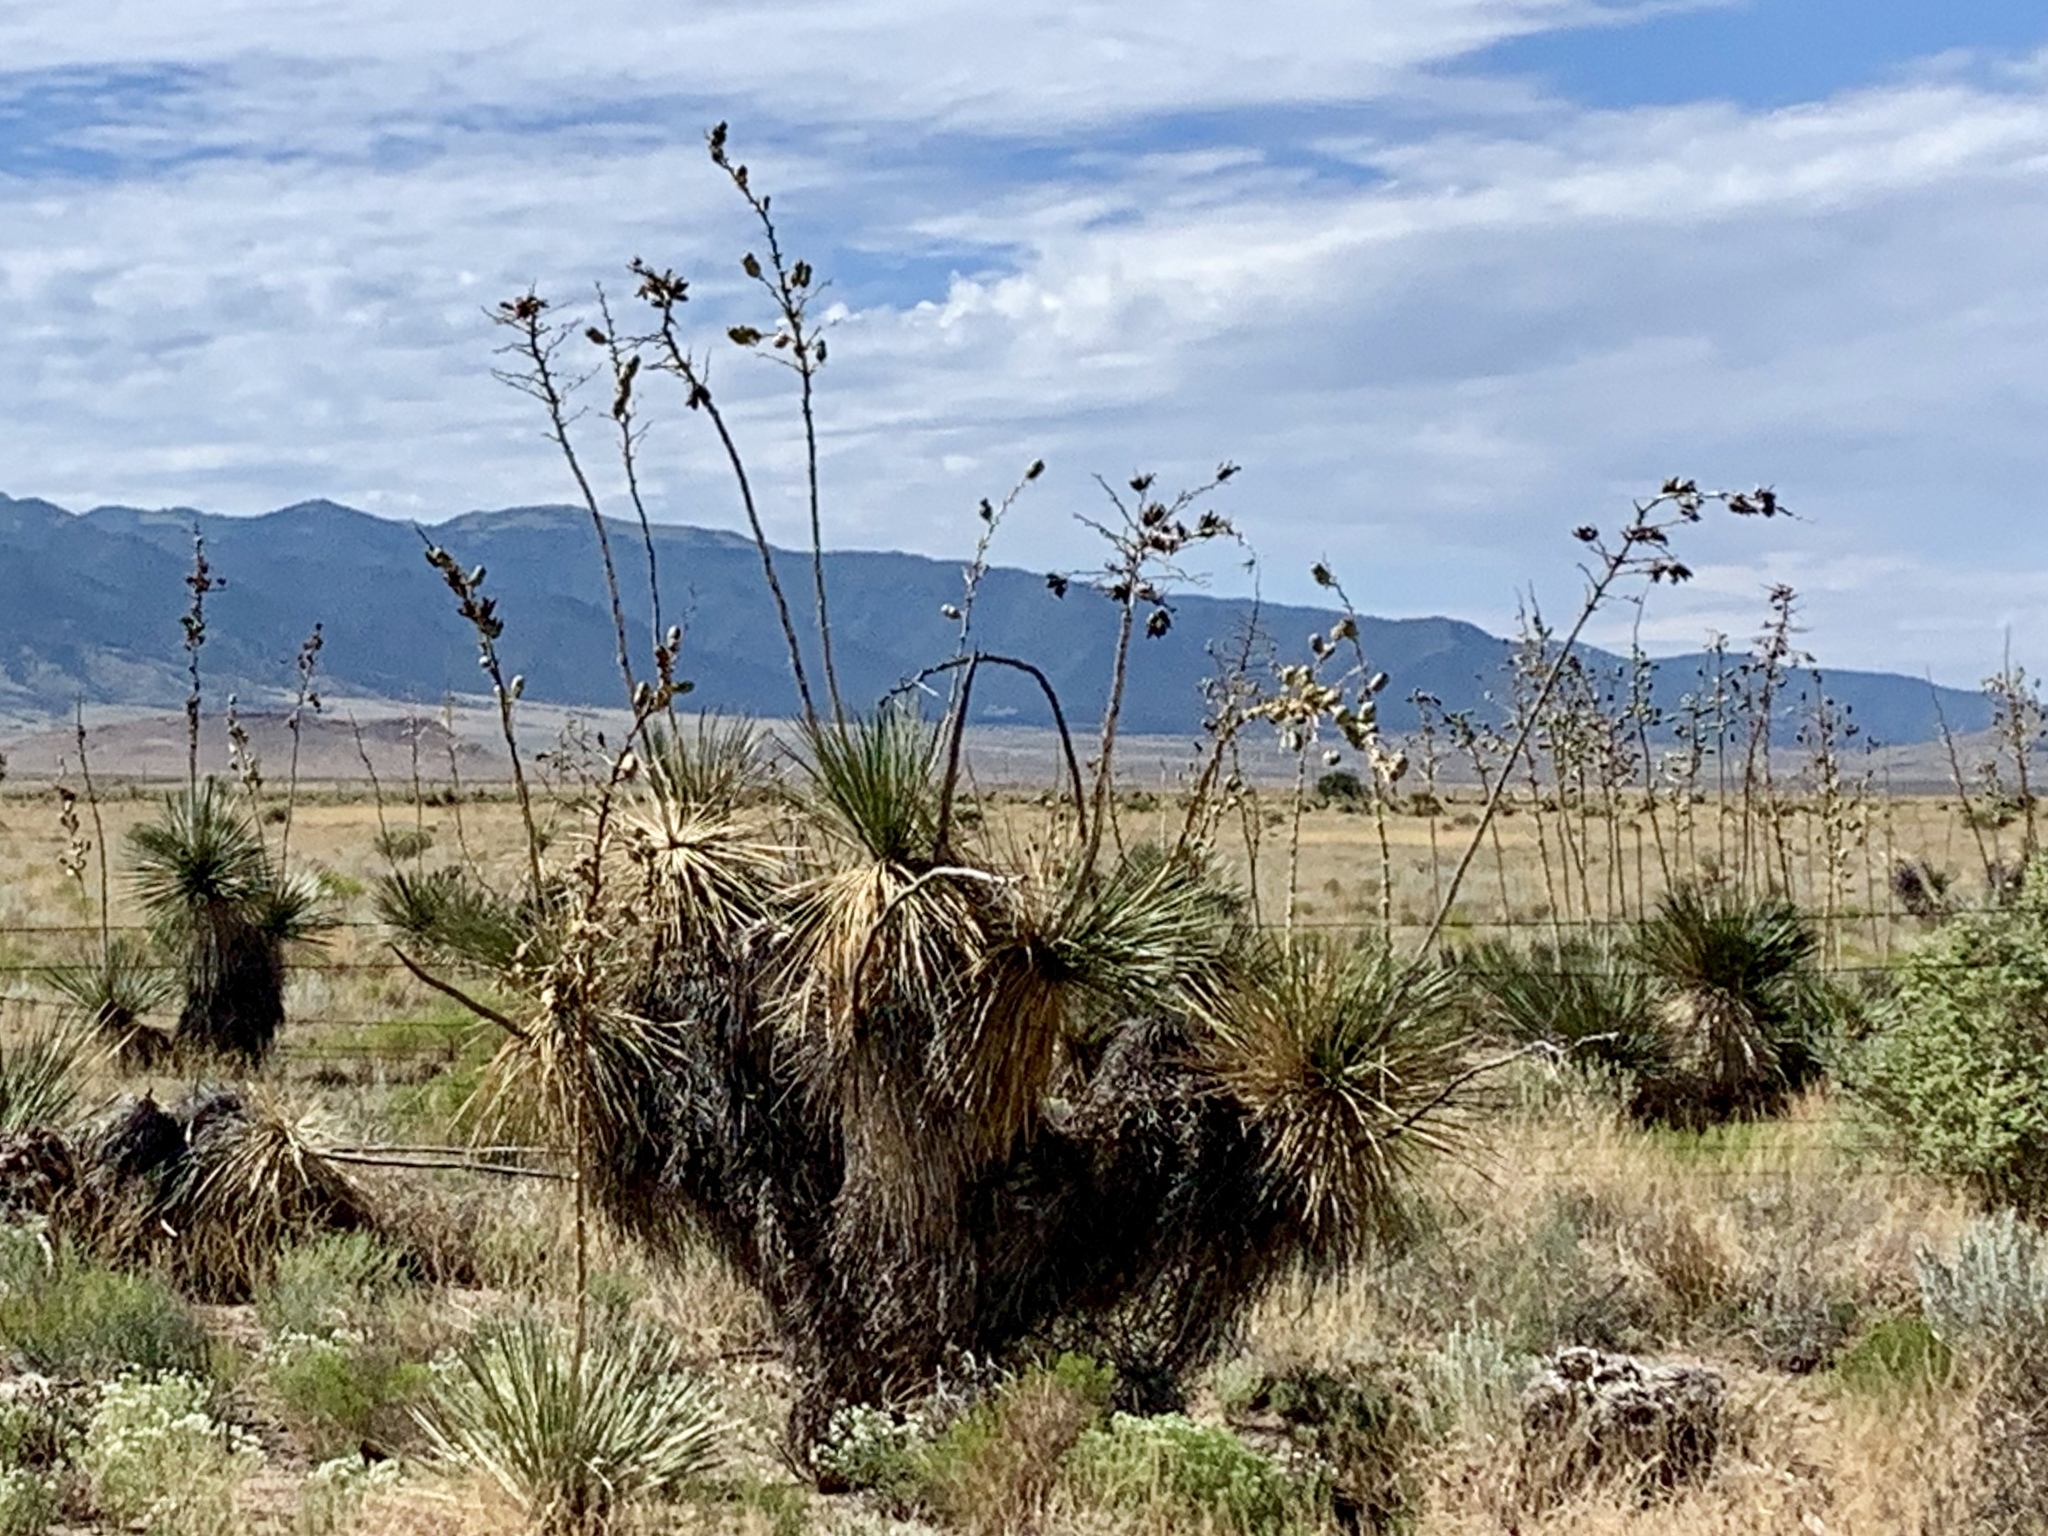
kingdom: Plantae
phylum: Tracheophyta
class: Liliopsida
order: Asparagales
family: Asparagaceae
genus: Yucca
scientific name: Yucca elata
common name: Palmella
